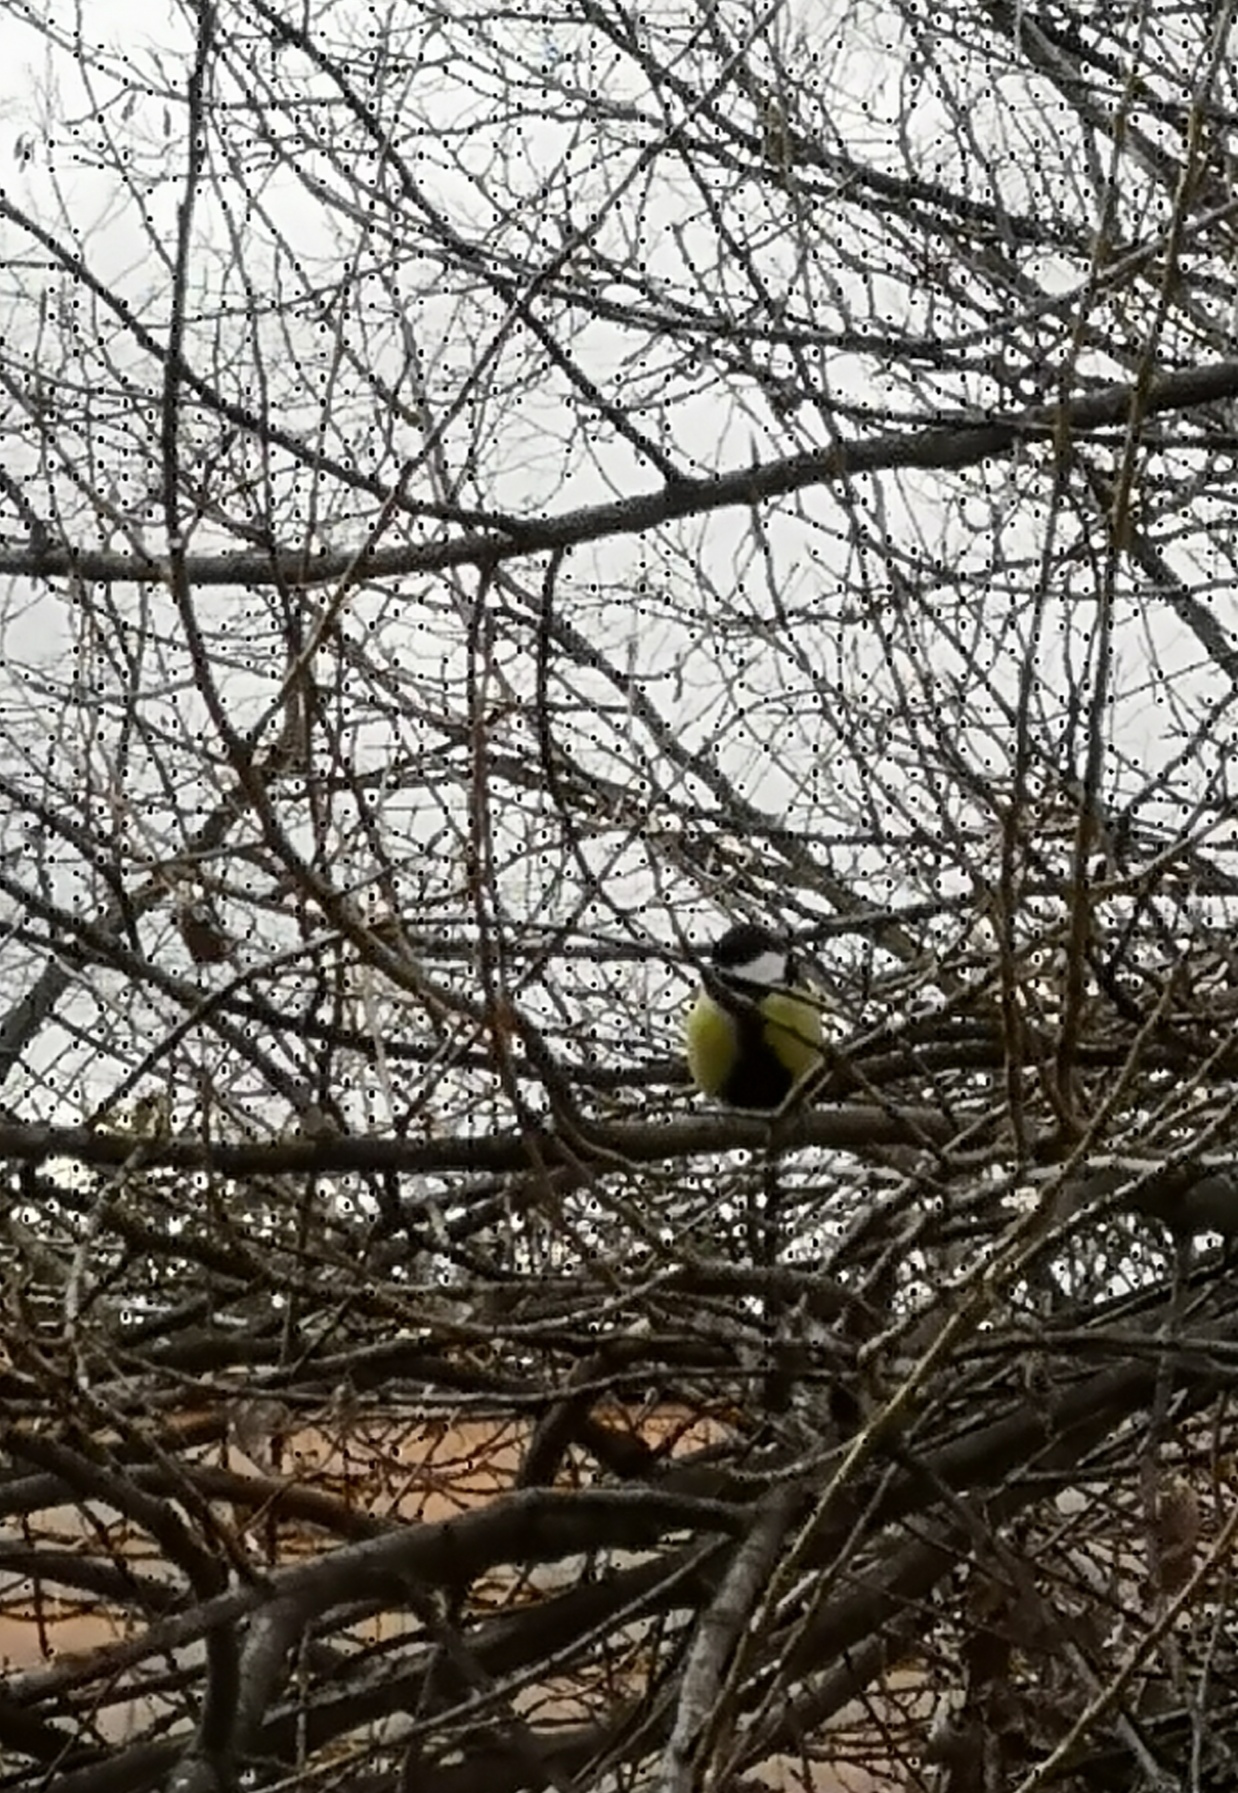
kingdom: Animalia
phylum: Chordata
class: Aves
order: Passeriformes
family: Paridae
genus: Parus
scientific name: Parus major
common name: Great tit
